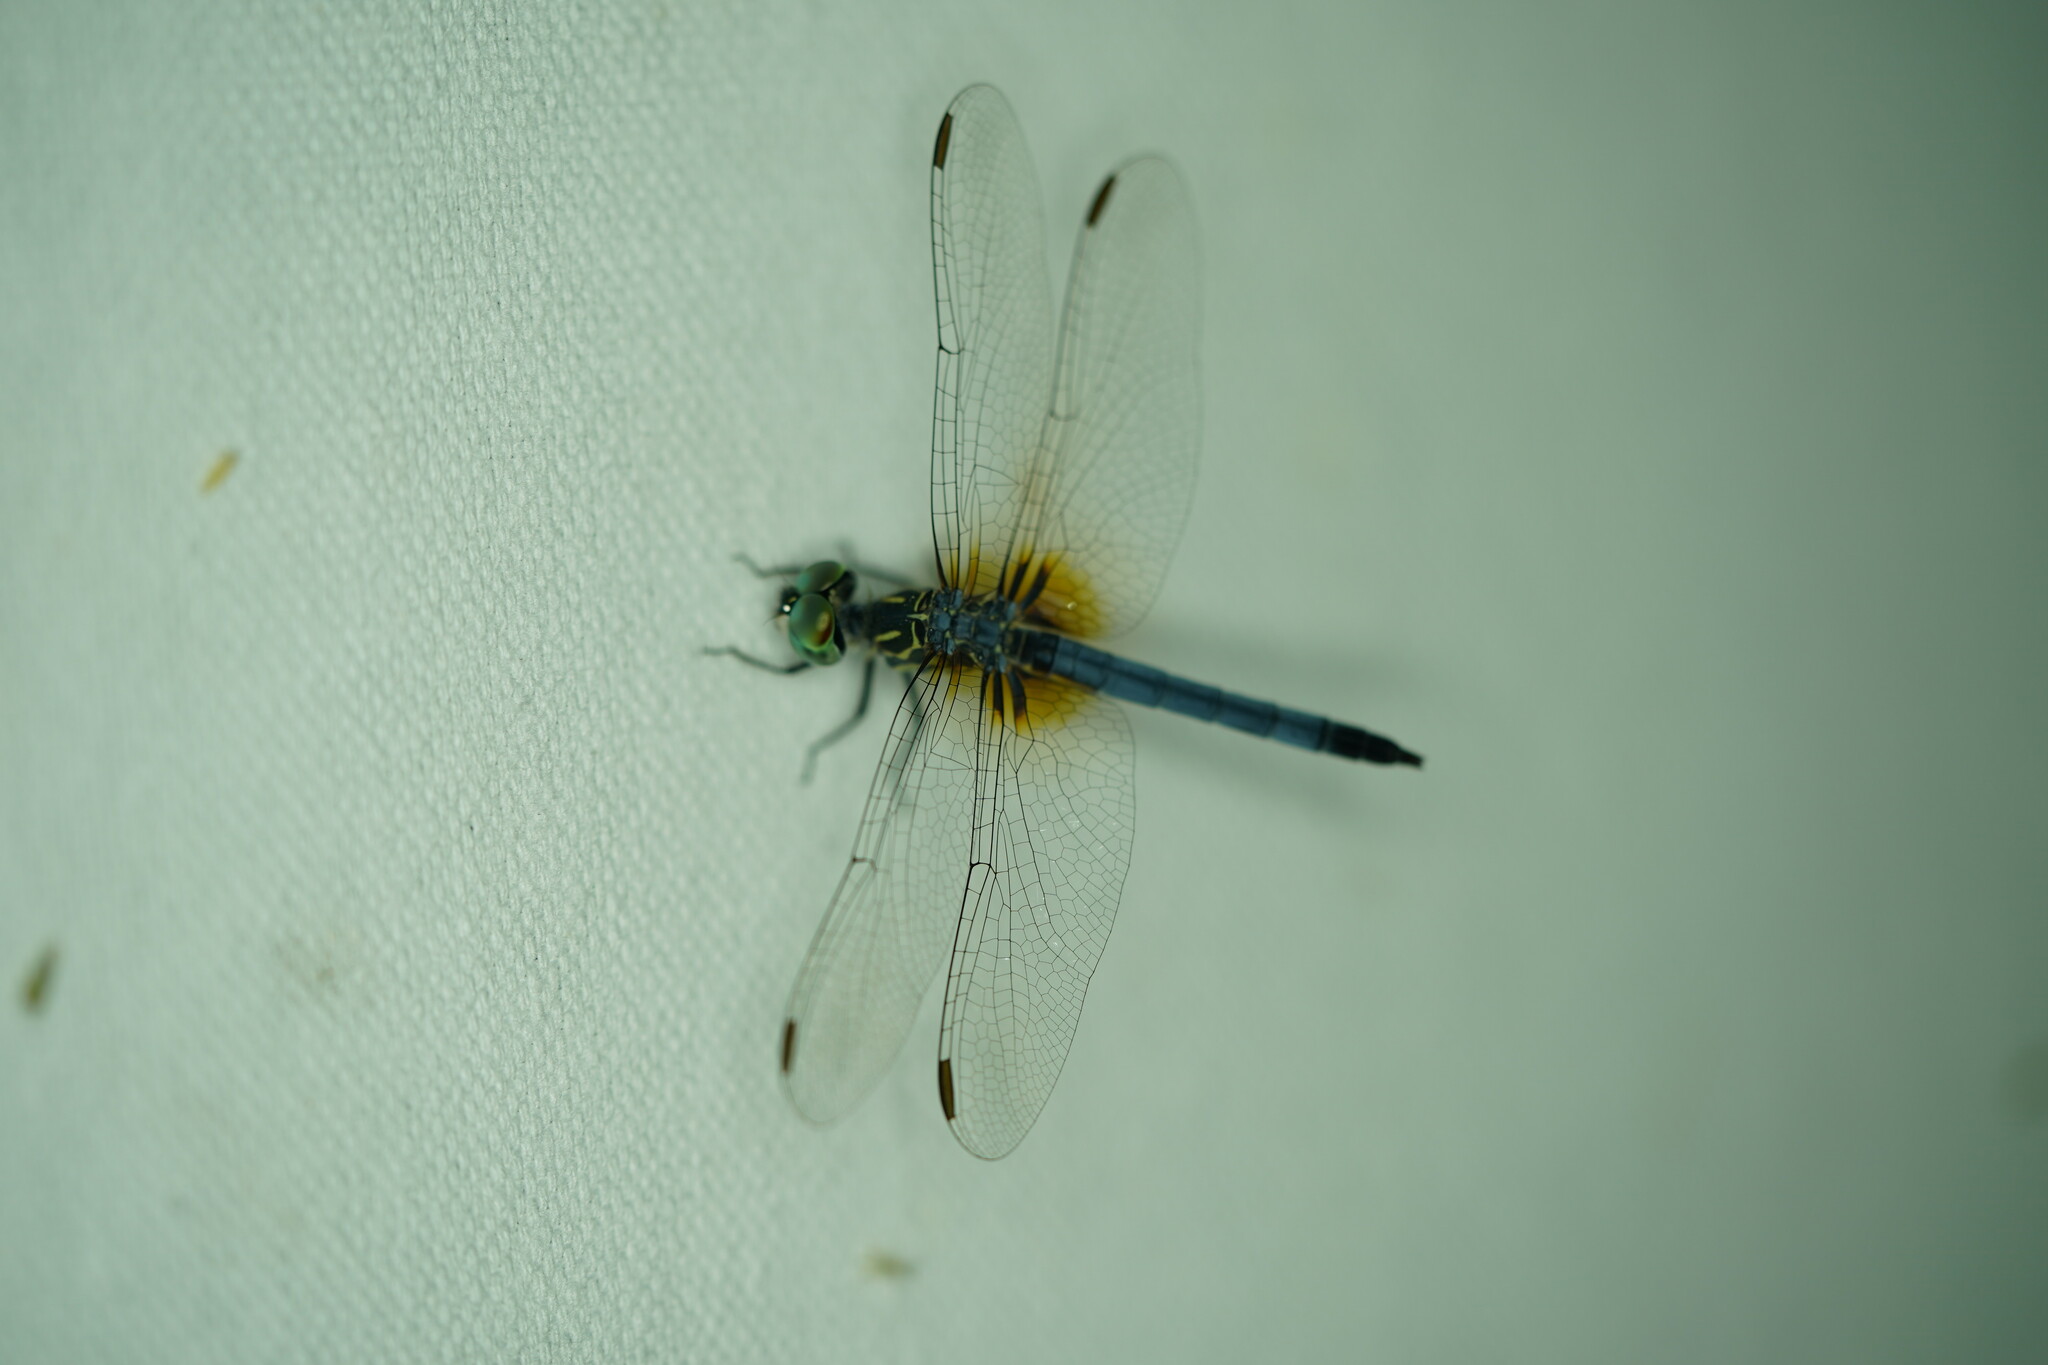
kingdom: Animalia
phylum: Arthropoda
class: Insecta
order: Odonata
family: Libellulidae
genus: Pachydiplax
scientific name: Pachydiplax longipennis
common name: Blue dasher
